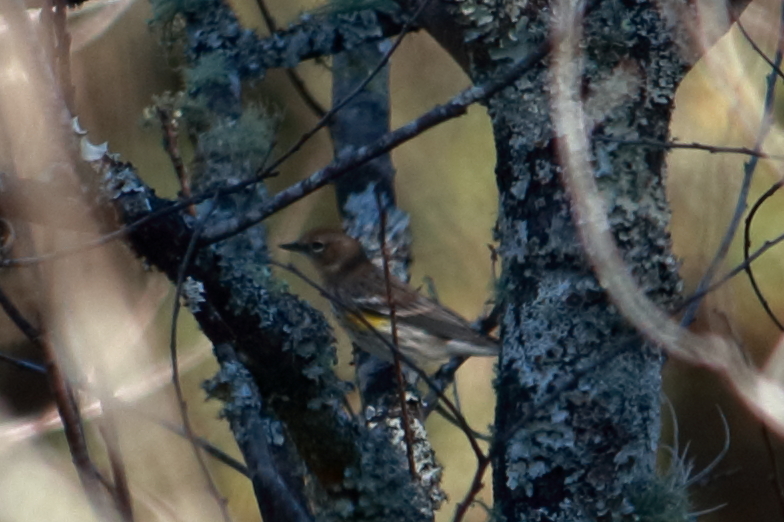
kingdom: Animalia
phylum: Chordata
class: Aves
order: Passeriformes
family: Parulidae
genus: Setophaga
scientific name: Setophaga coronata
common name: Myrtle warbler
